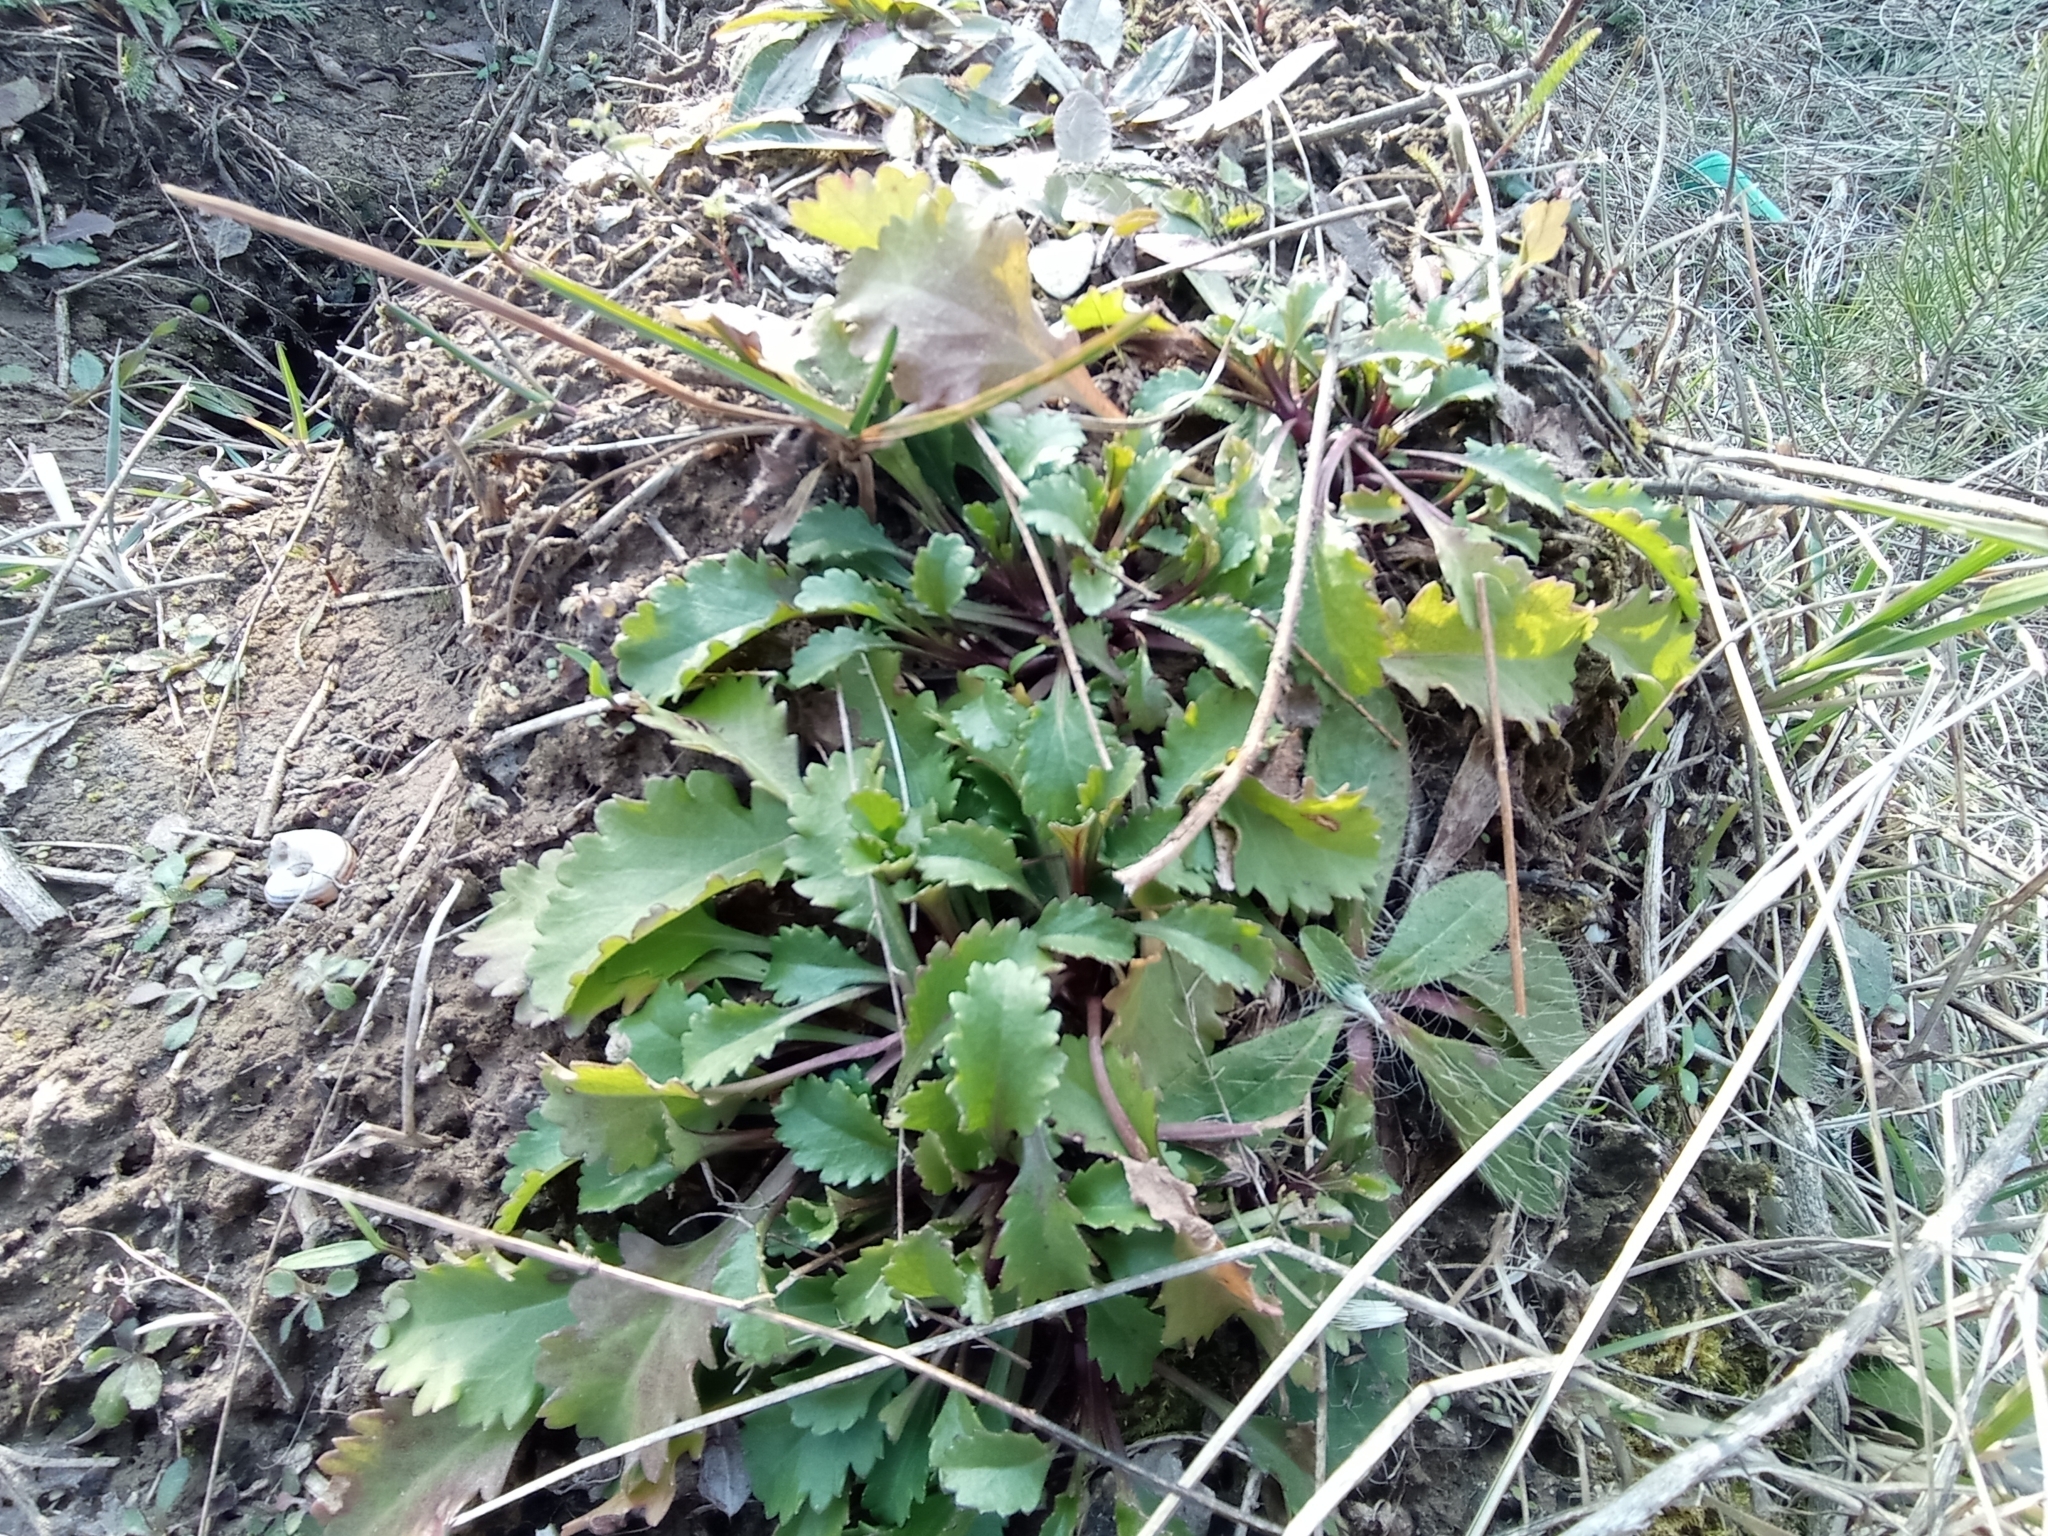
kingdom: Plantae
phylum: Tracheophyta
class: Magnoliopsida
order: Asterales
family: Asteraceae
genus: Leucanthemum
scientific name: Leucanthemum vulgare
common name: Oxeye daisy
